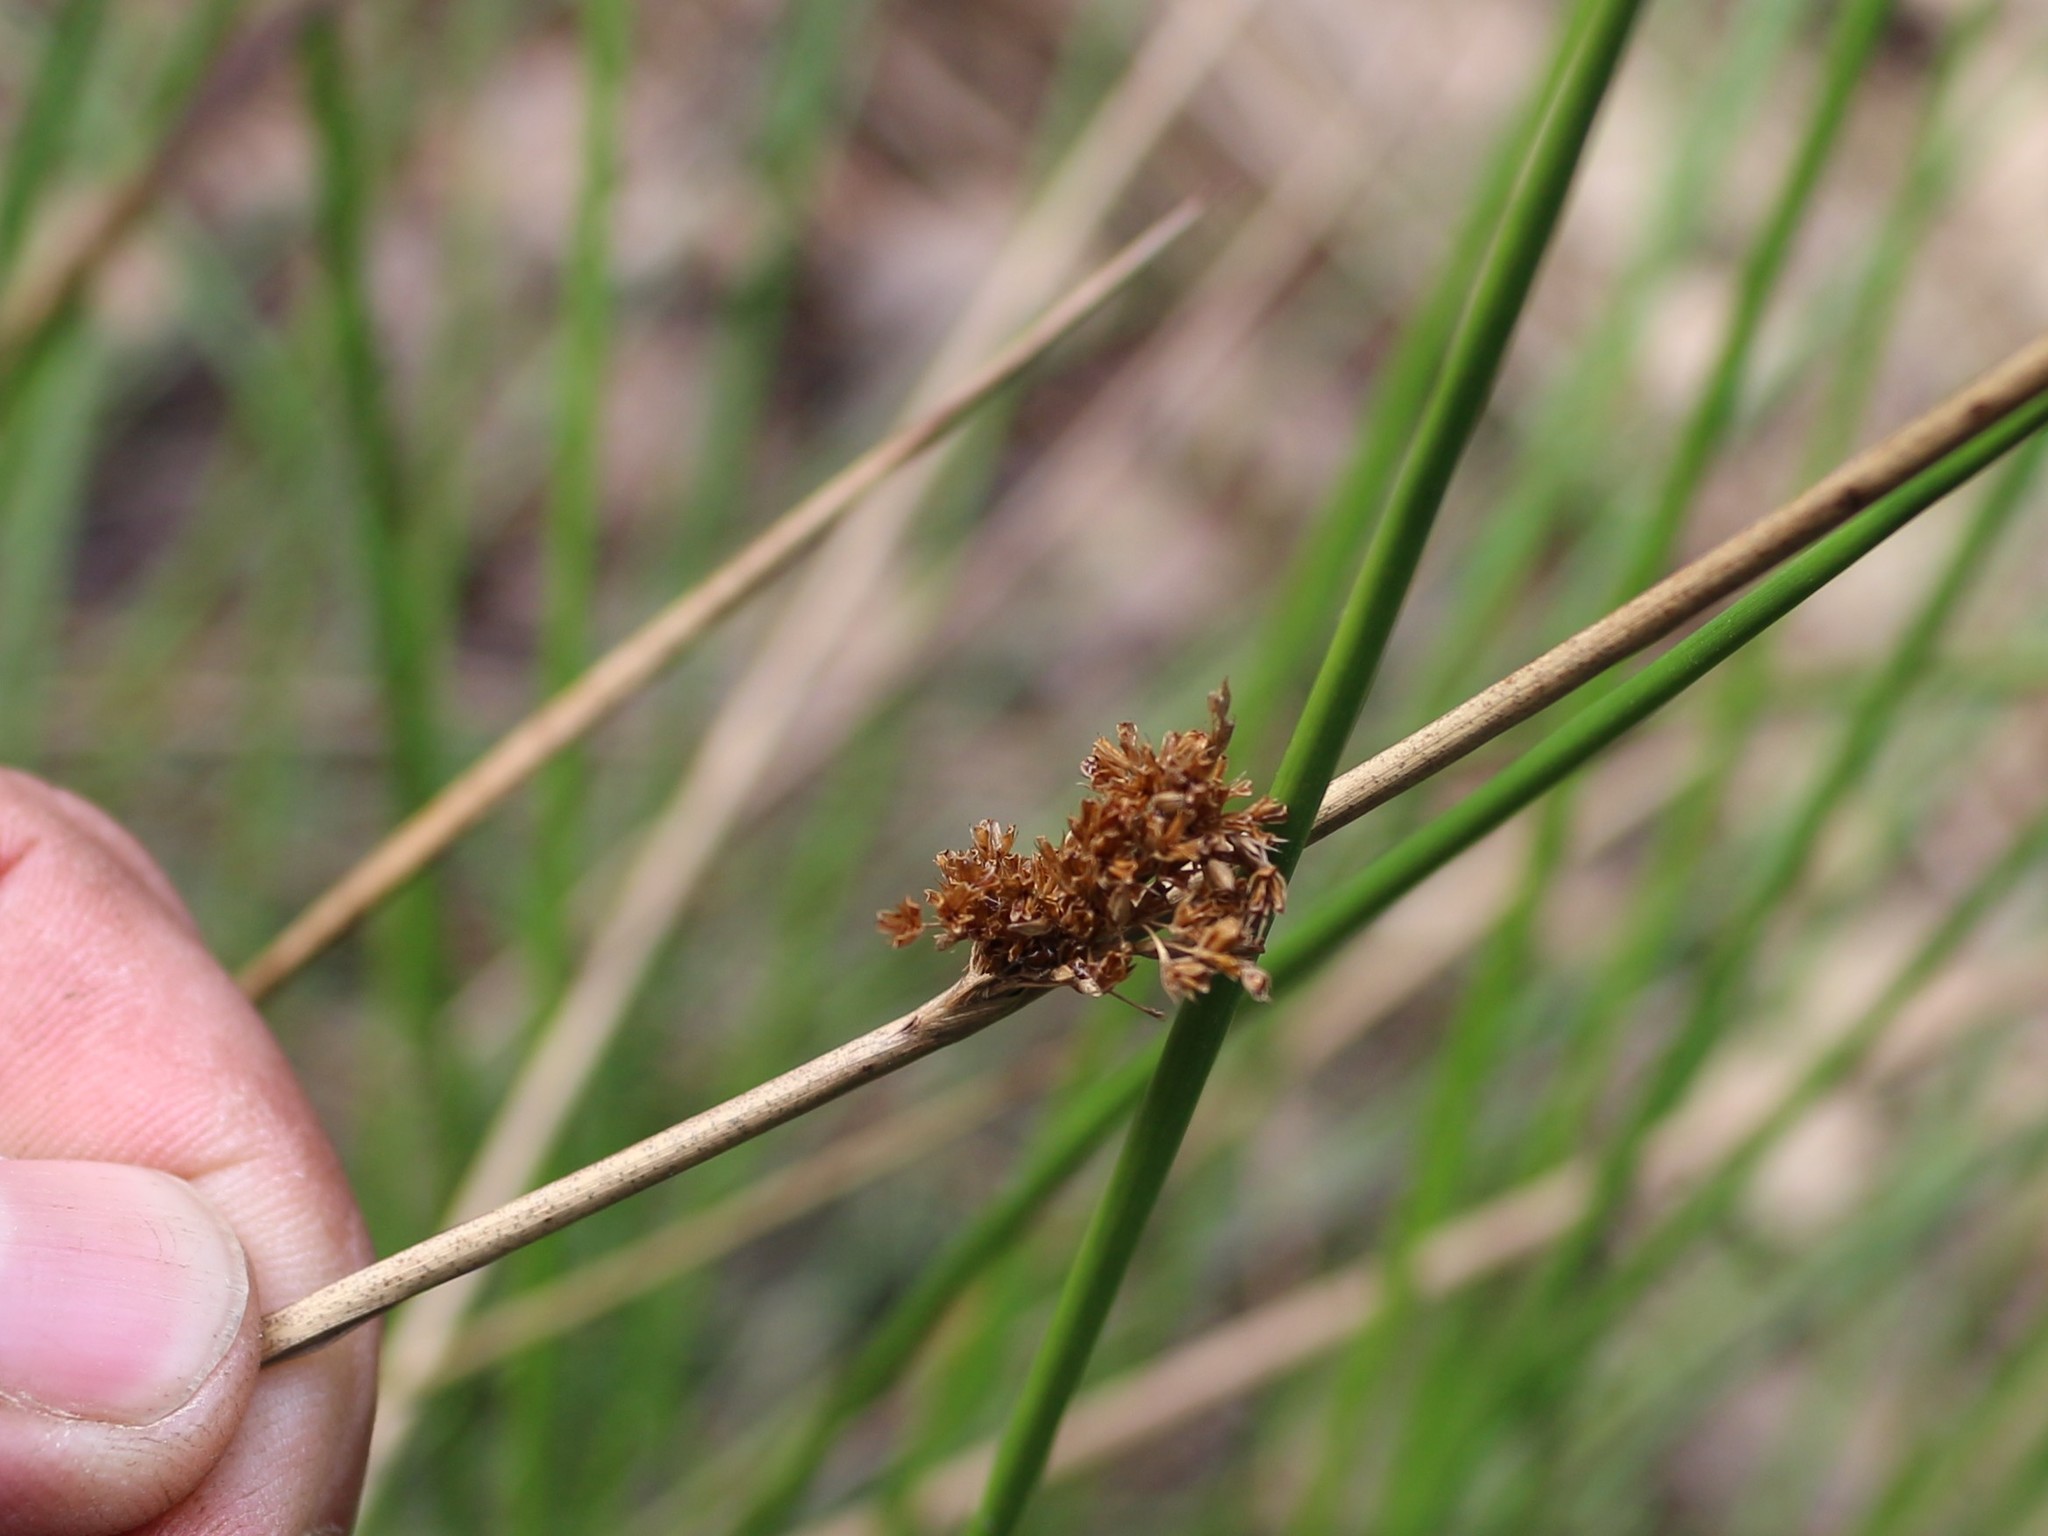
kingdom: Plantae
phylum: Tracheophyta
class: Liliopsida
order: Poales
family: Juncaceae
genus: Juncus
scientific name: Juncus effusus
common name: Soft rush
